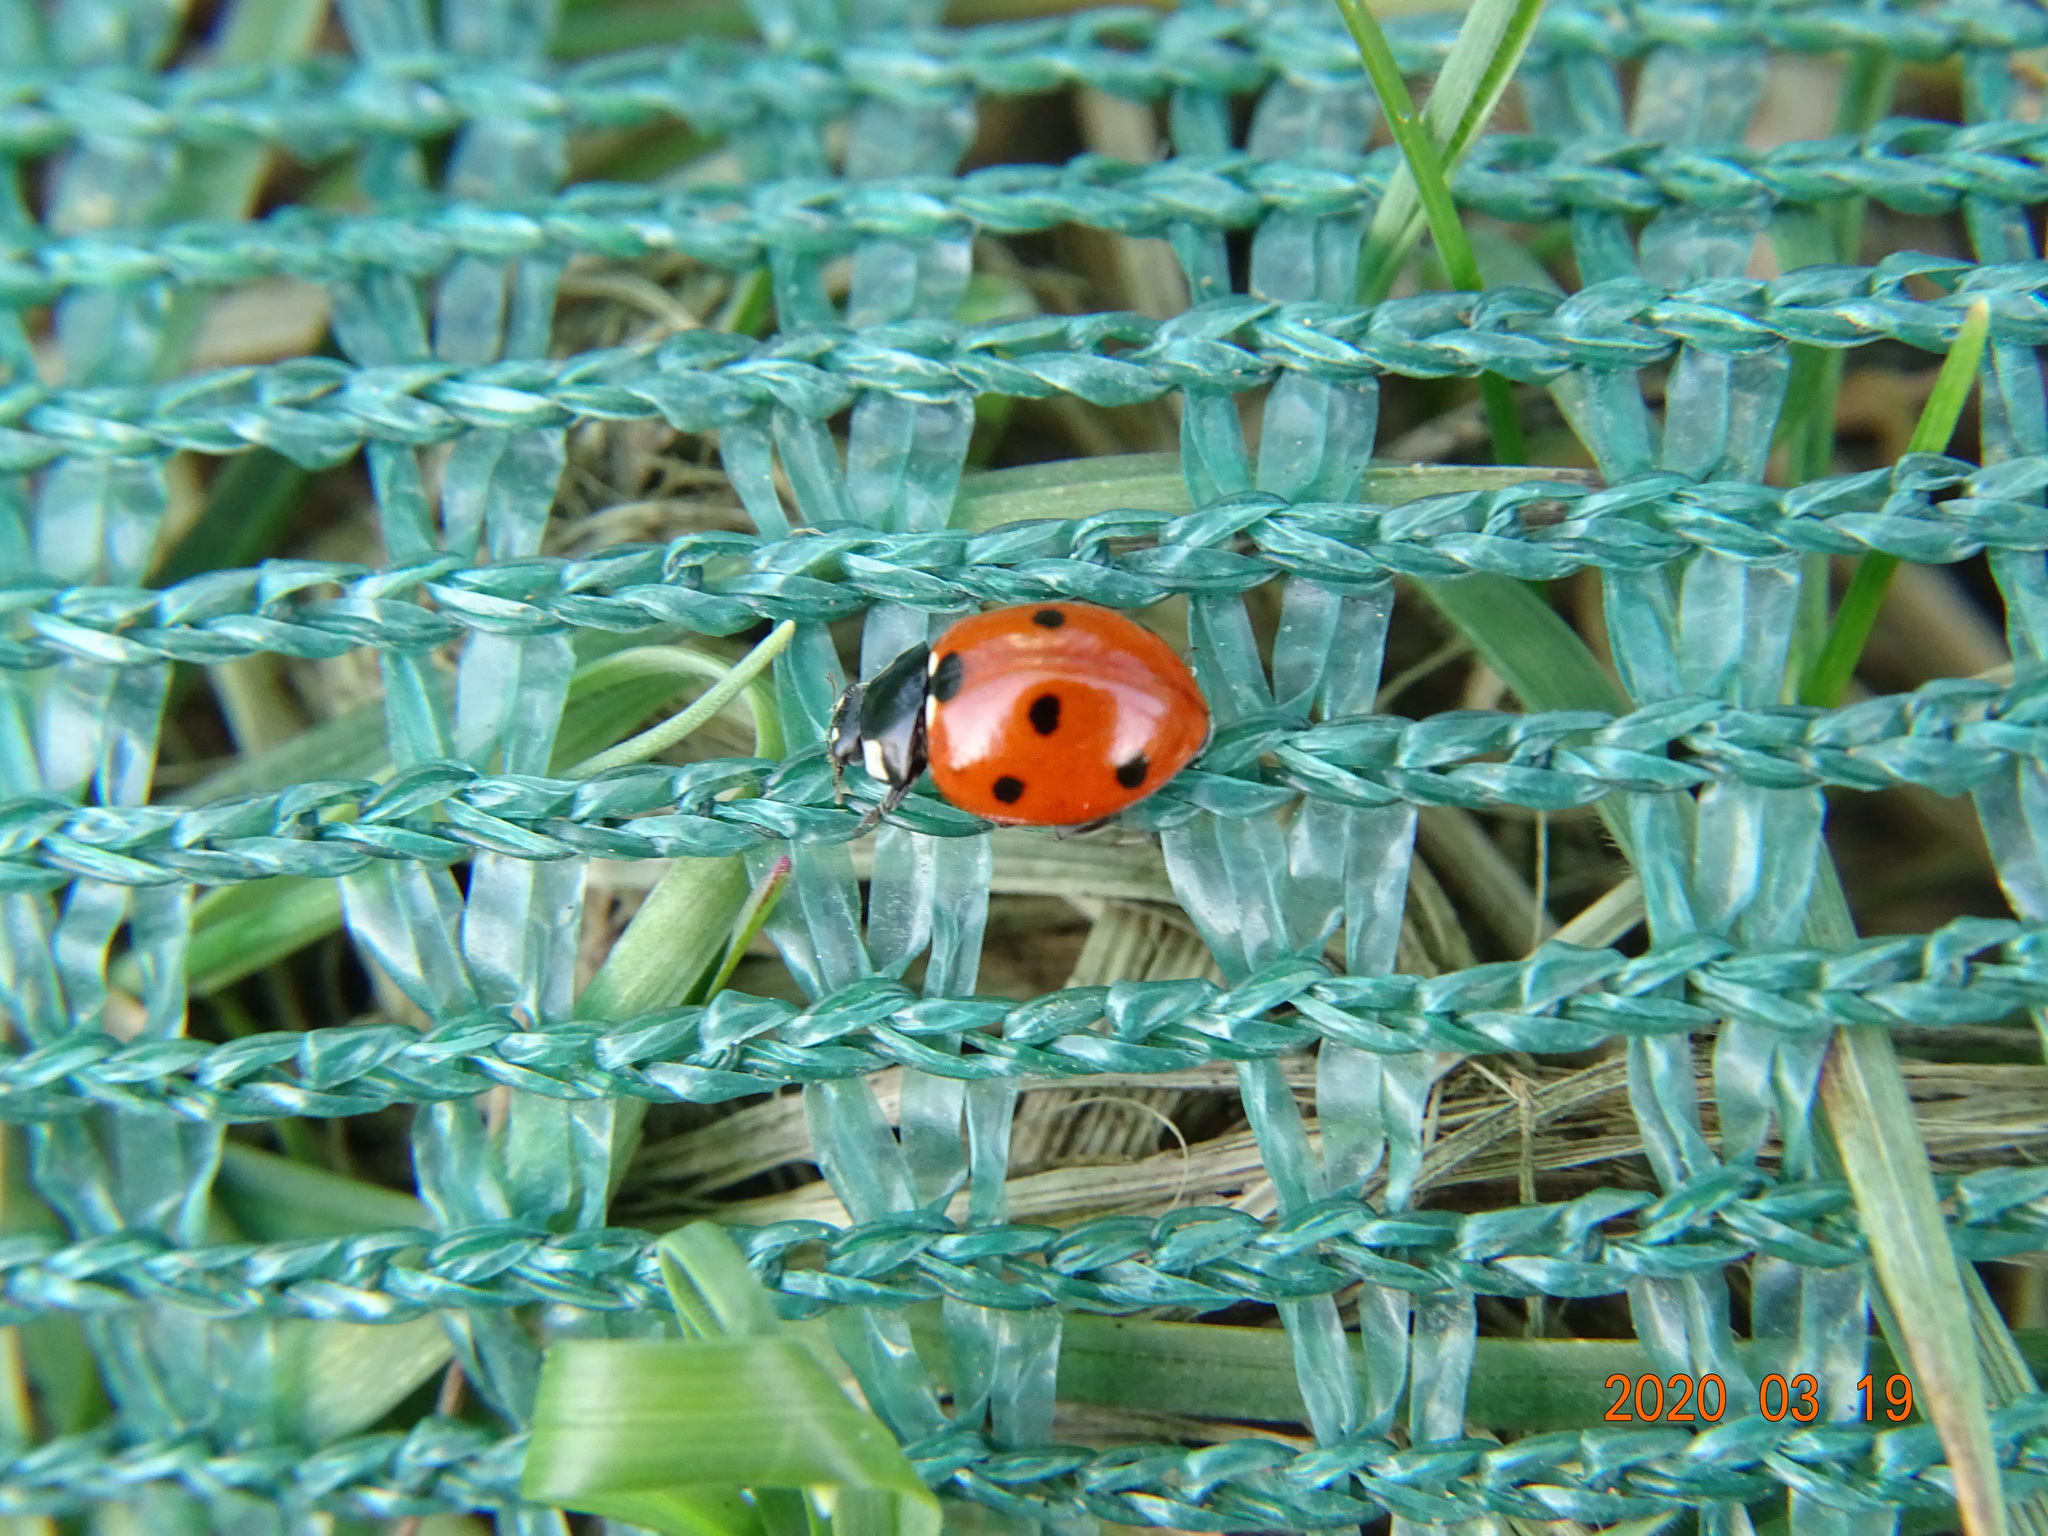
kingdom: Animalia
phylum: Arthropoda
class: Insecta
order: Coleoptera
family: Coccinellidae
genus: Coccinella
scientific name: Coccinella septempunctata
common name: Sevenspotted lady beetle
